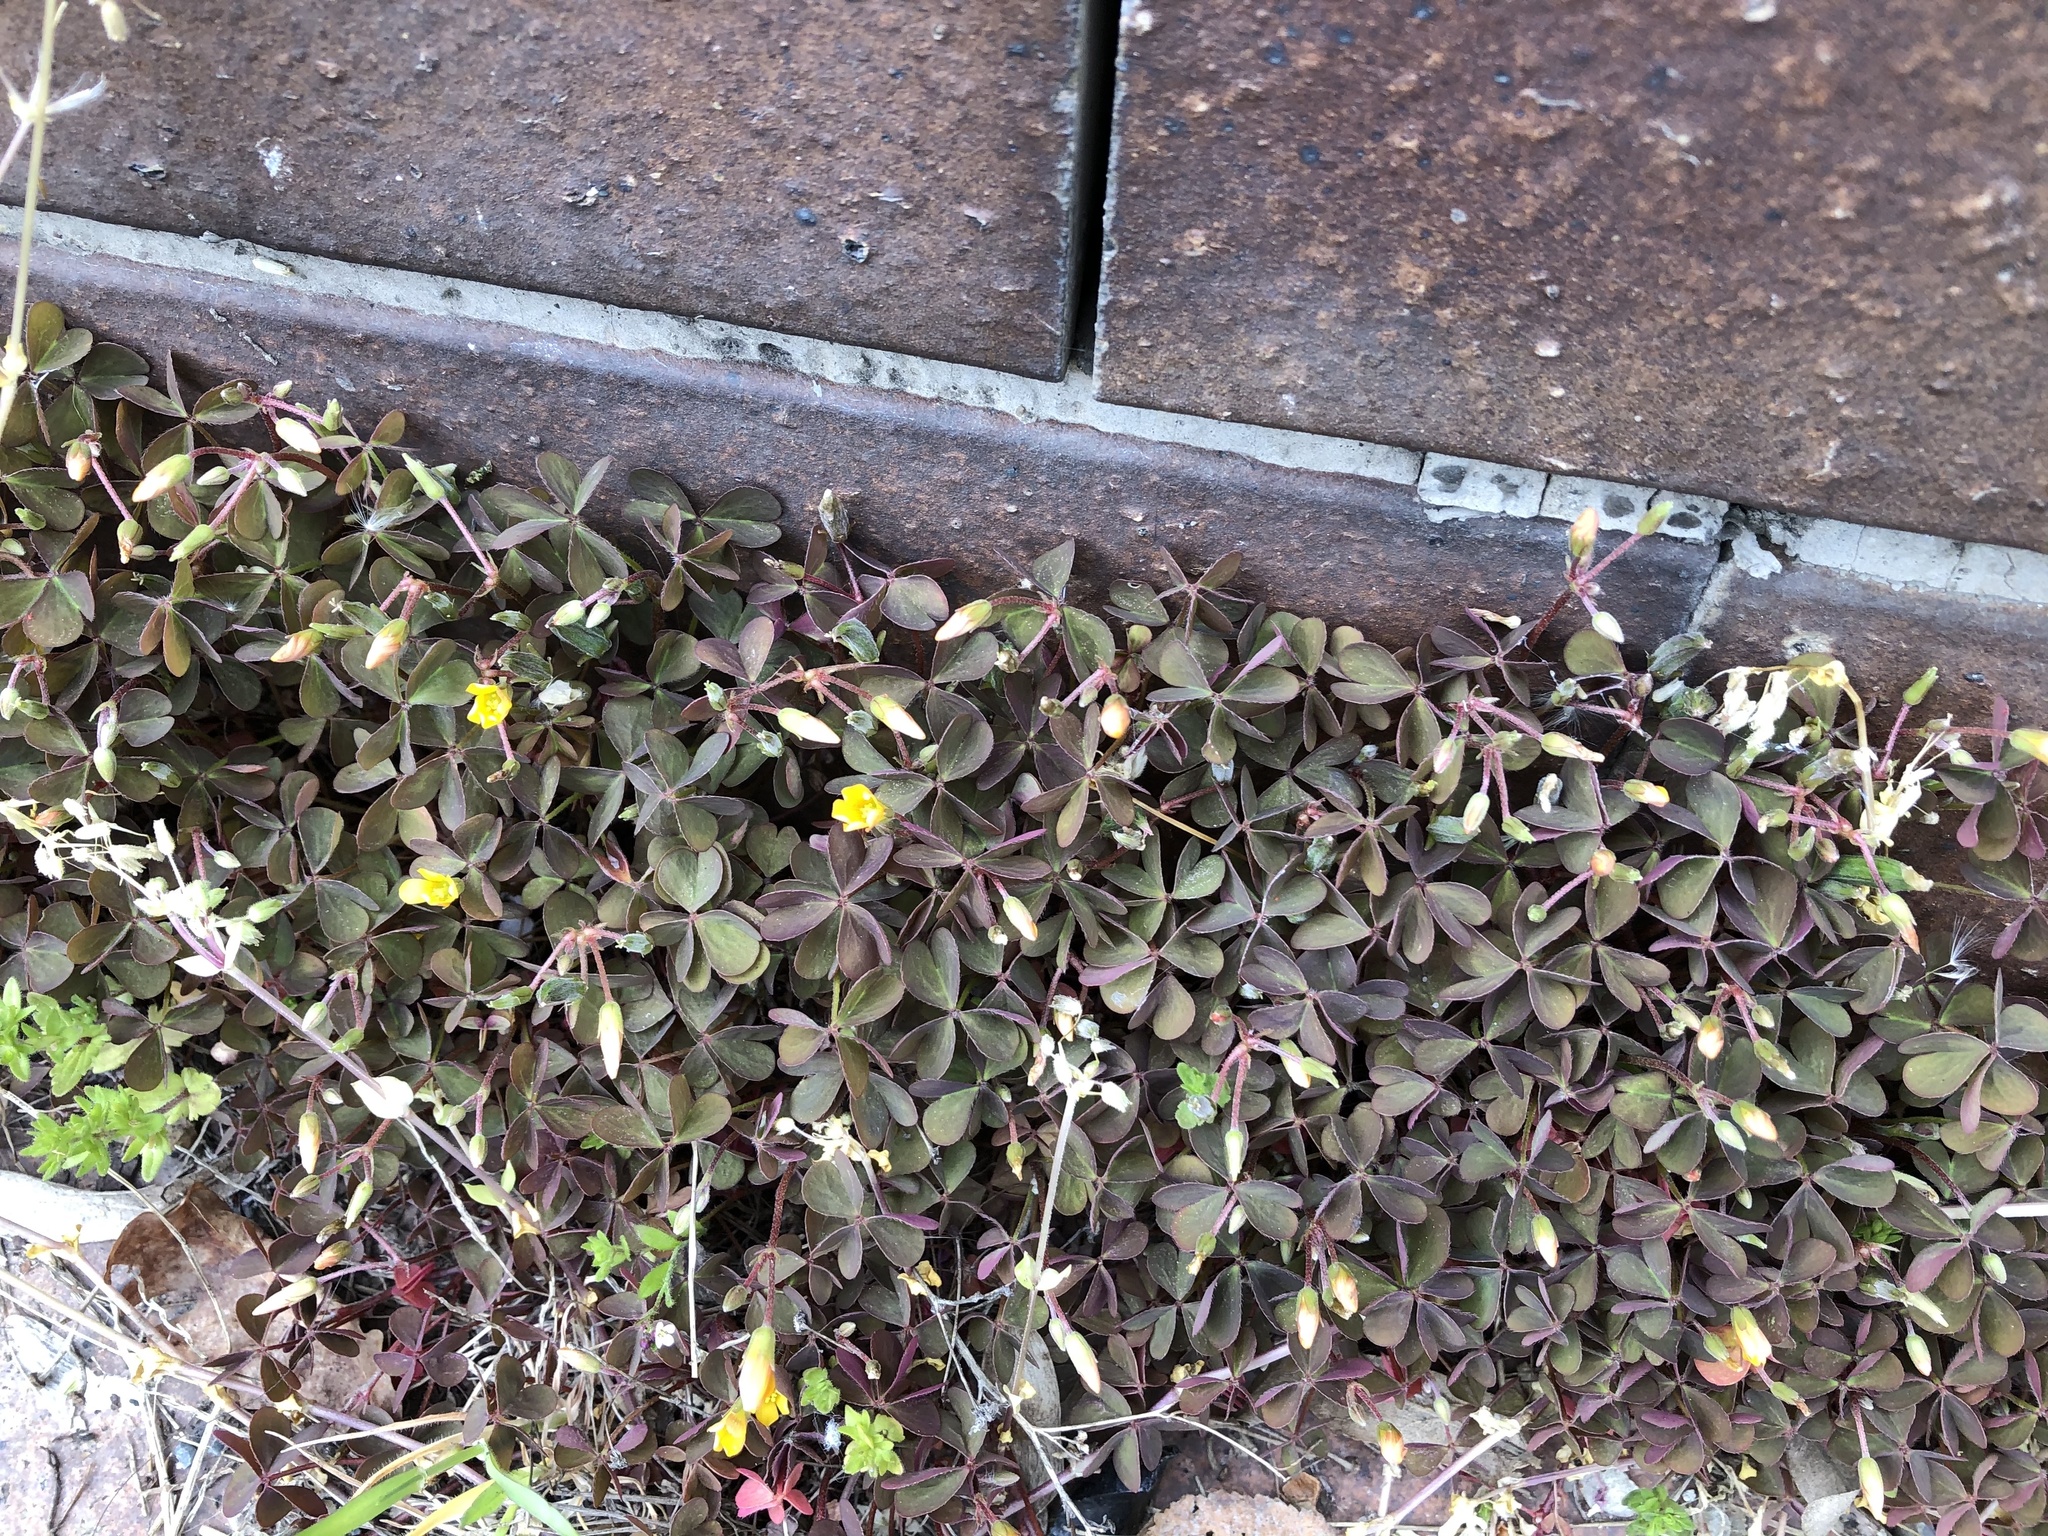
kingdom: Plantae
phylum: Tracheophyta
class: Magnoliopsida
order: Oxalidales
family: Oxalidaceae
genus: Oxalis
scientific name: Oxalis corniculata
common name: Procumbent yellow-sorrel
